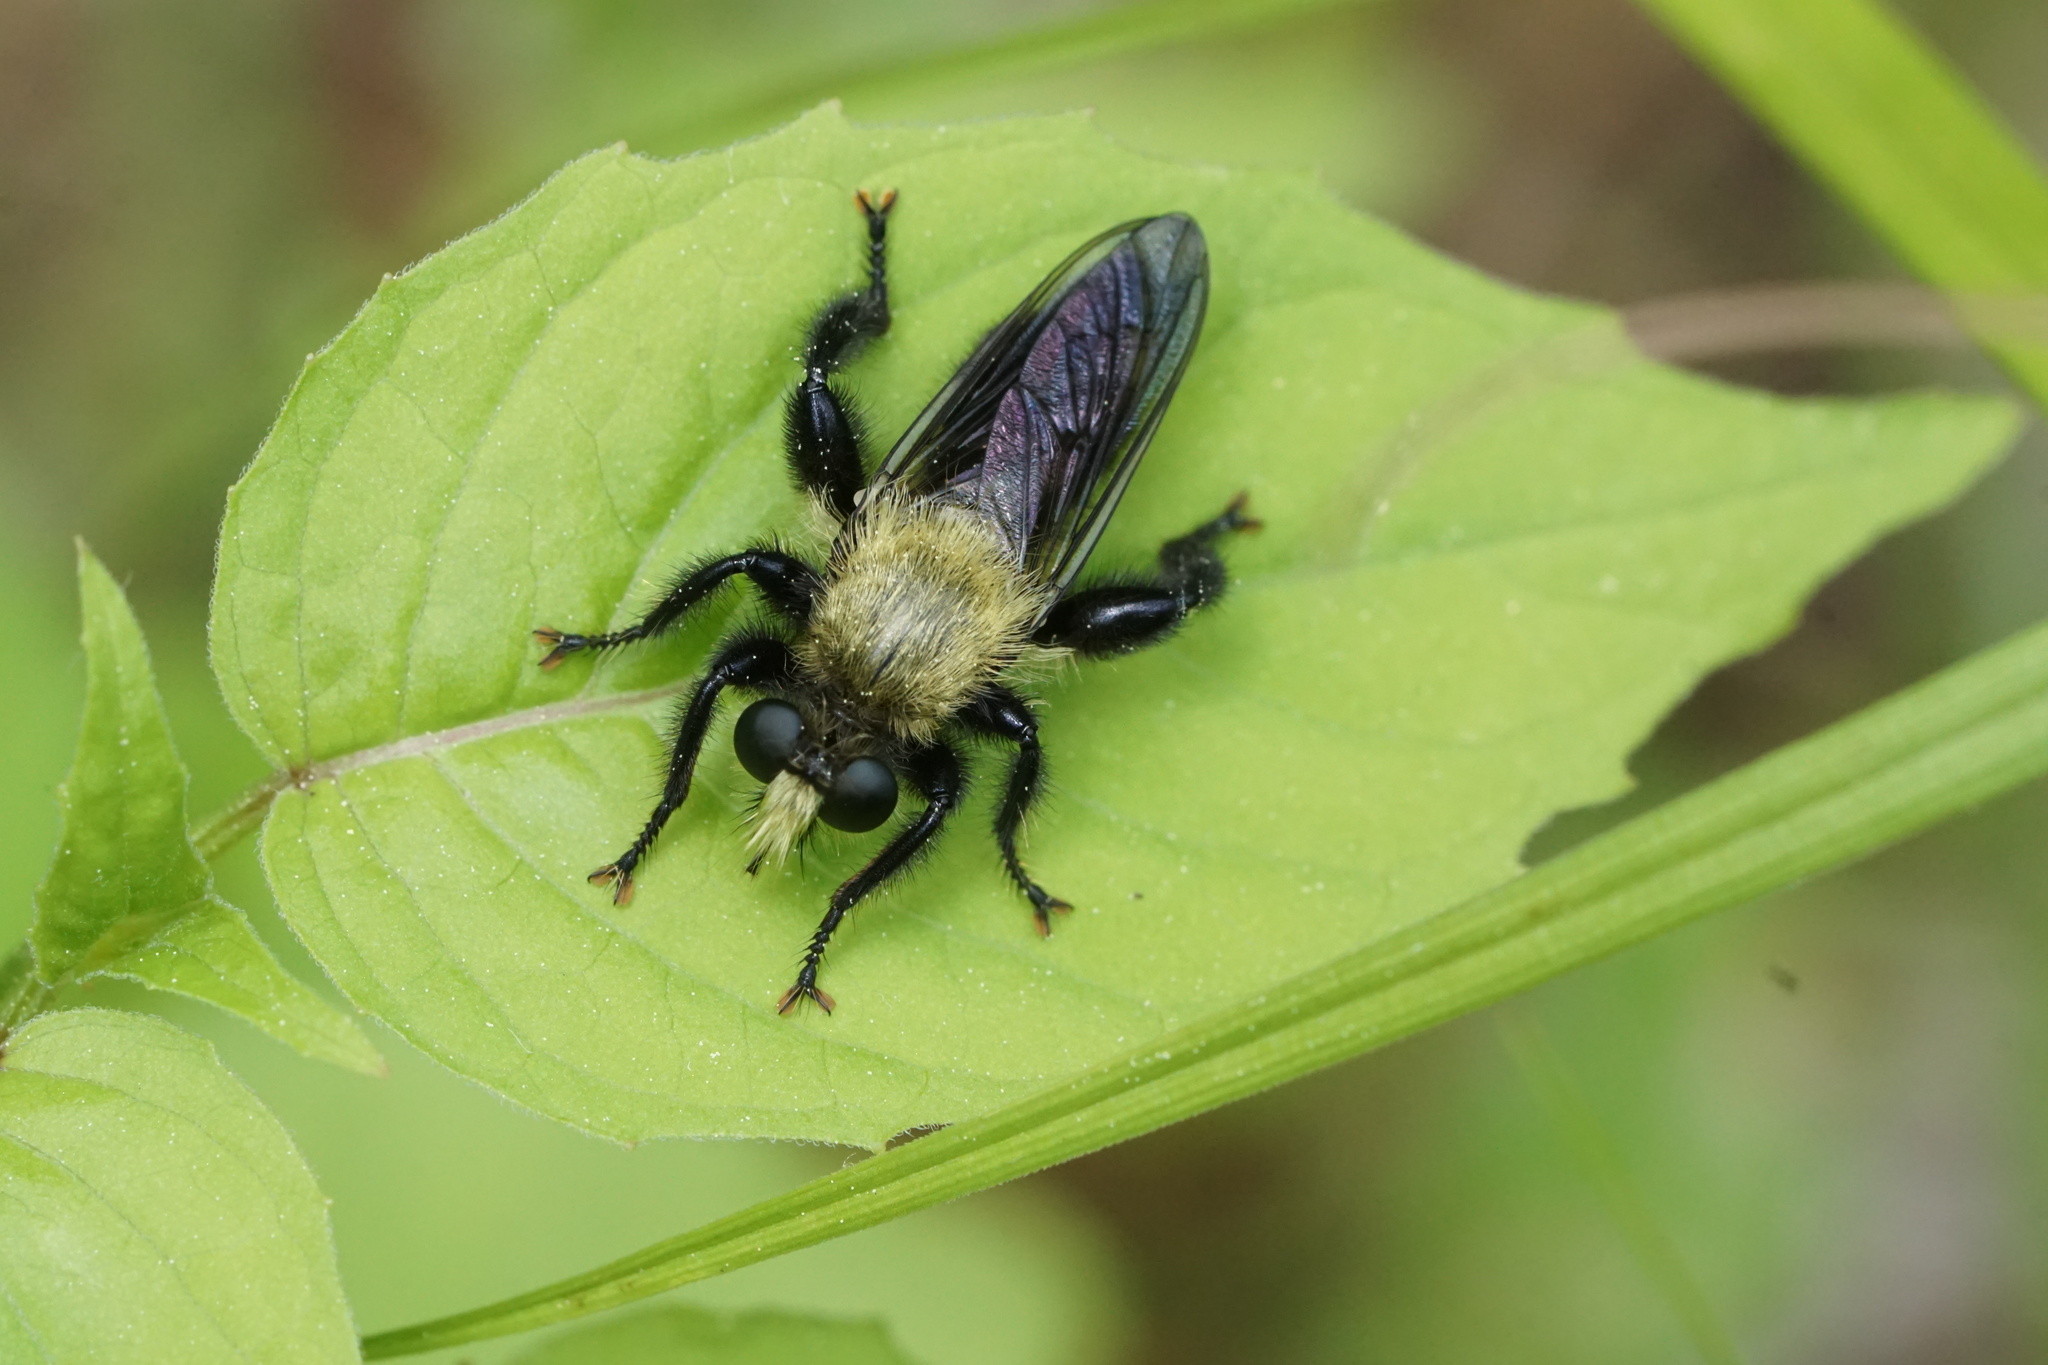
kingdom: Animalia
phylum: Arthropoda
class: Insecta
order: Diptera
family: Asilidae
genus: Laphria
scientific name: Laphria flavicollis
